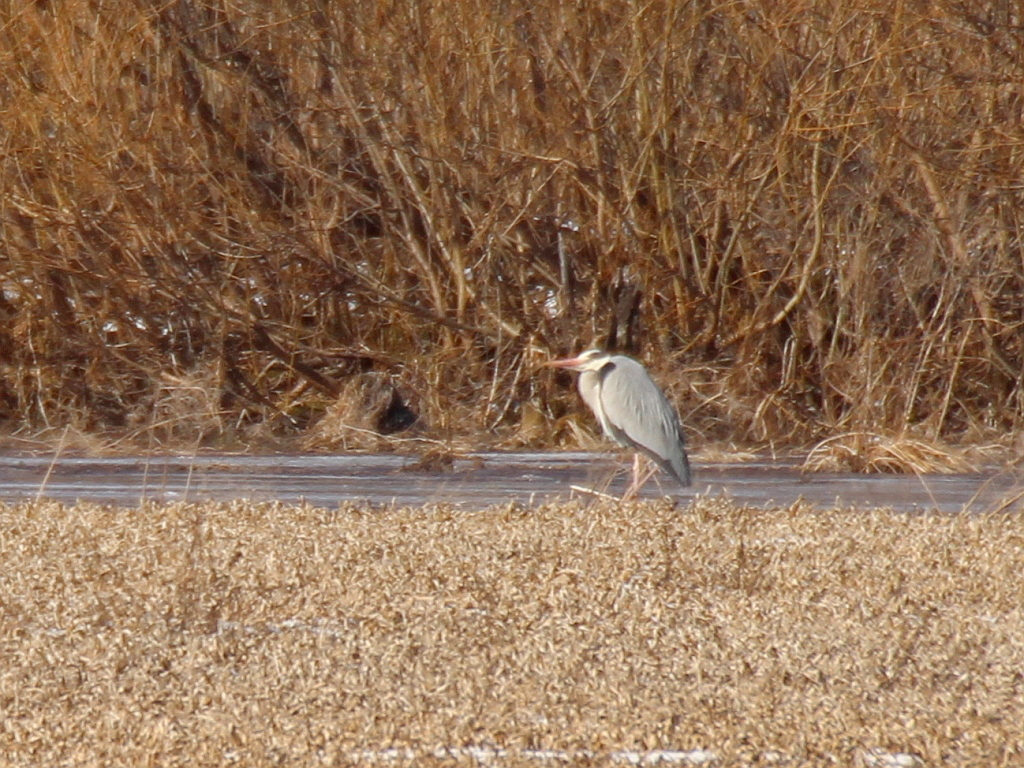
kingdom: Animalia
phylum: Chordata
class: Aves
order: Pelecaniformes
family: Ardeidae
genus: Ardea
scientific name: Ardea cinerea
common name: Grey heron
